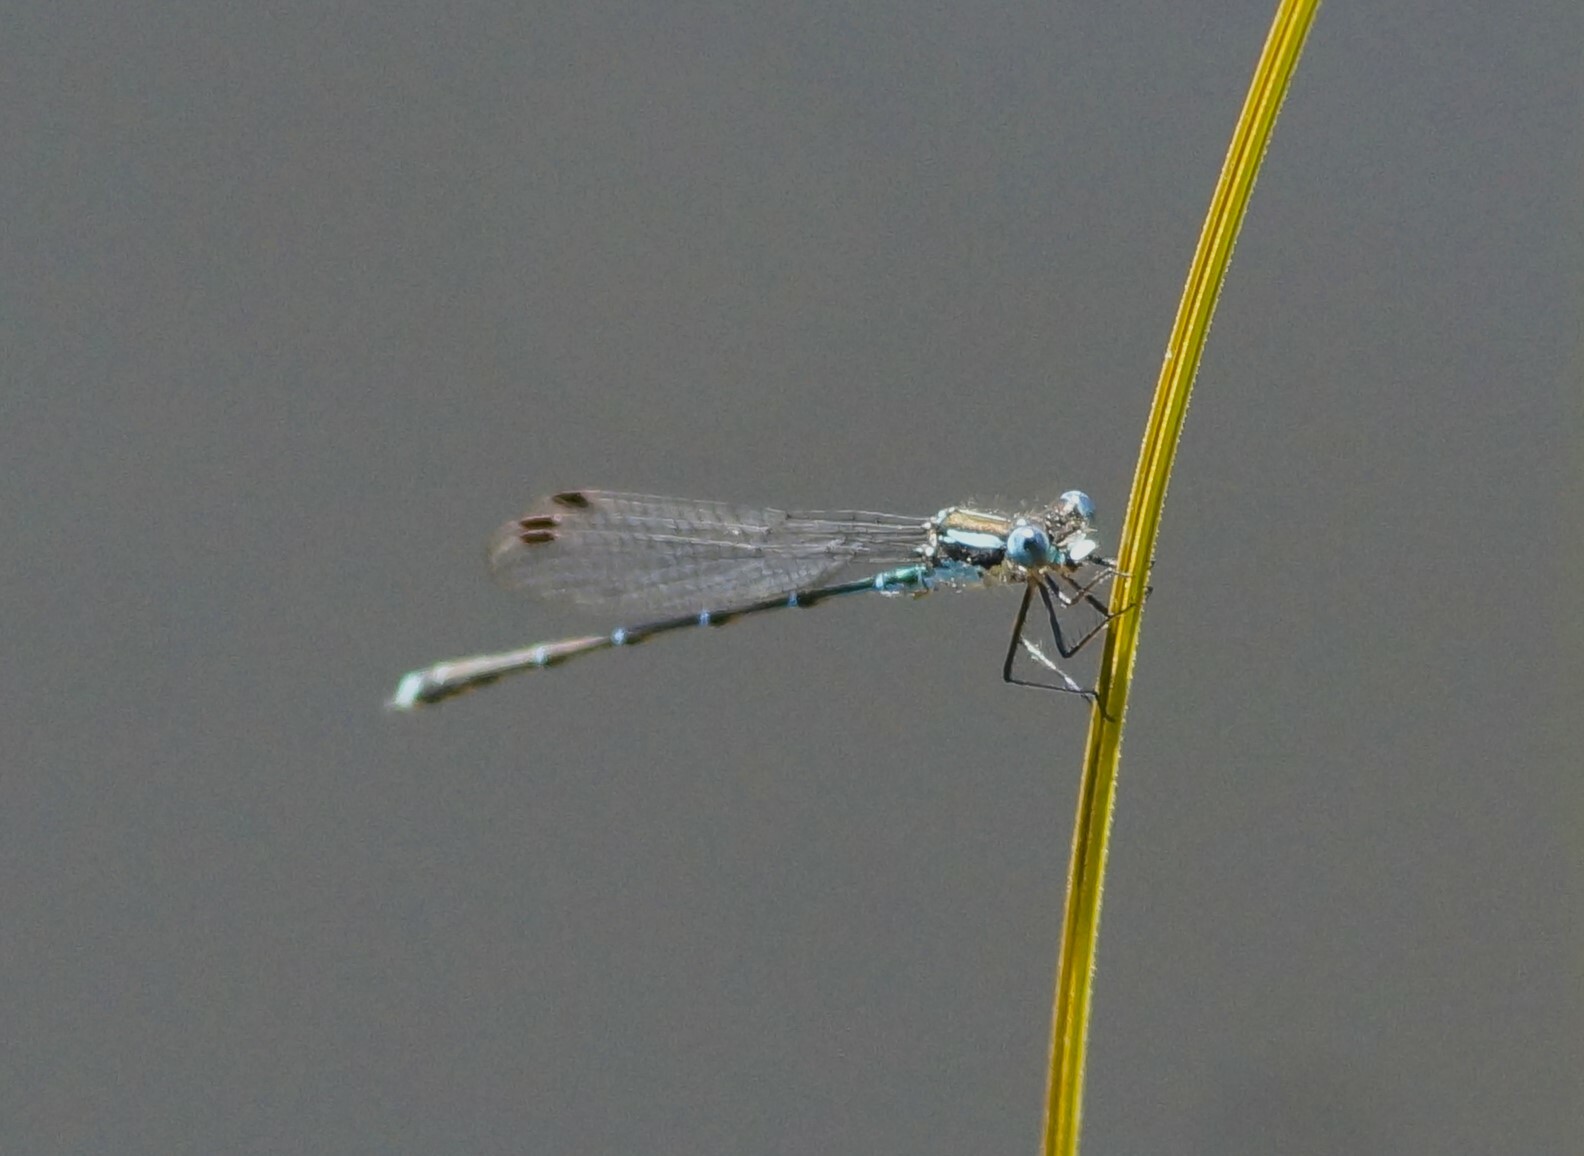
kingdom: Animalia
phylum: Arthropoda
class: Insecta
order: Odonata
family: Lestidae
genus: Austrolestes
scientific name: Austrolestes colensonis
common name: Blue damselfly
